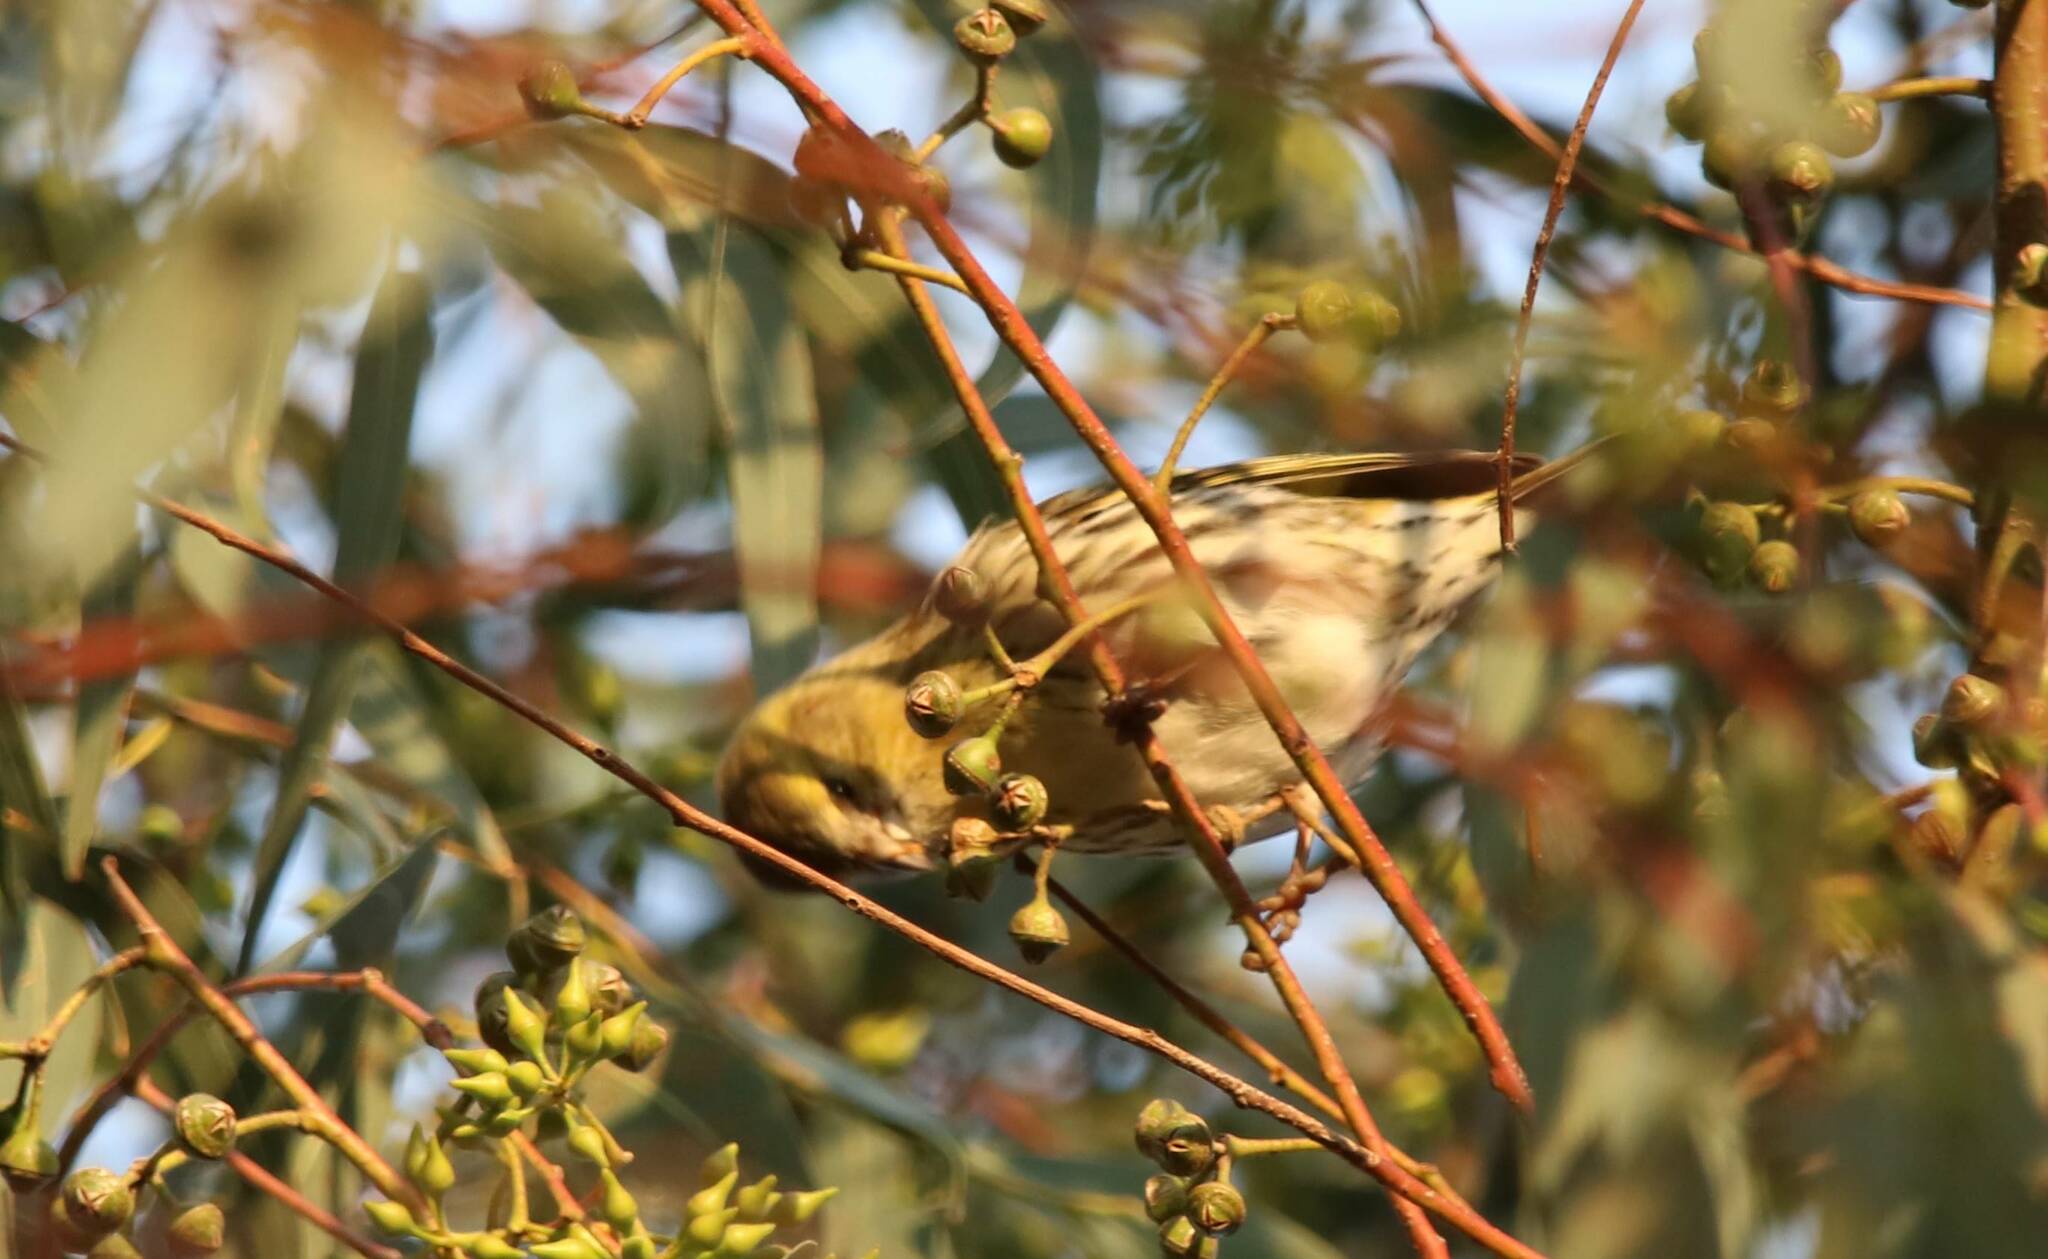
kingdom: Animalia
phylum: Chordata
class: Aves
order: Passeriformes
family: Fringillidae
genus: Spinus
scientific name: Spinus spinus
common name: Eurasian siskin
